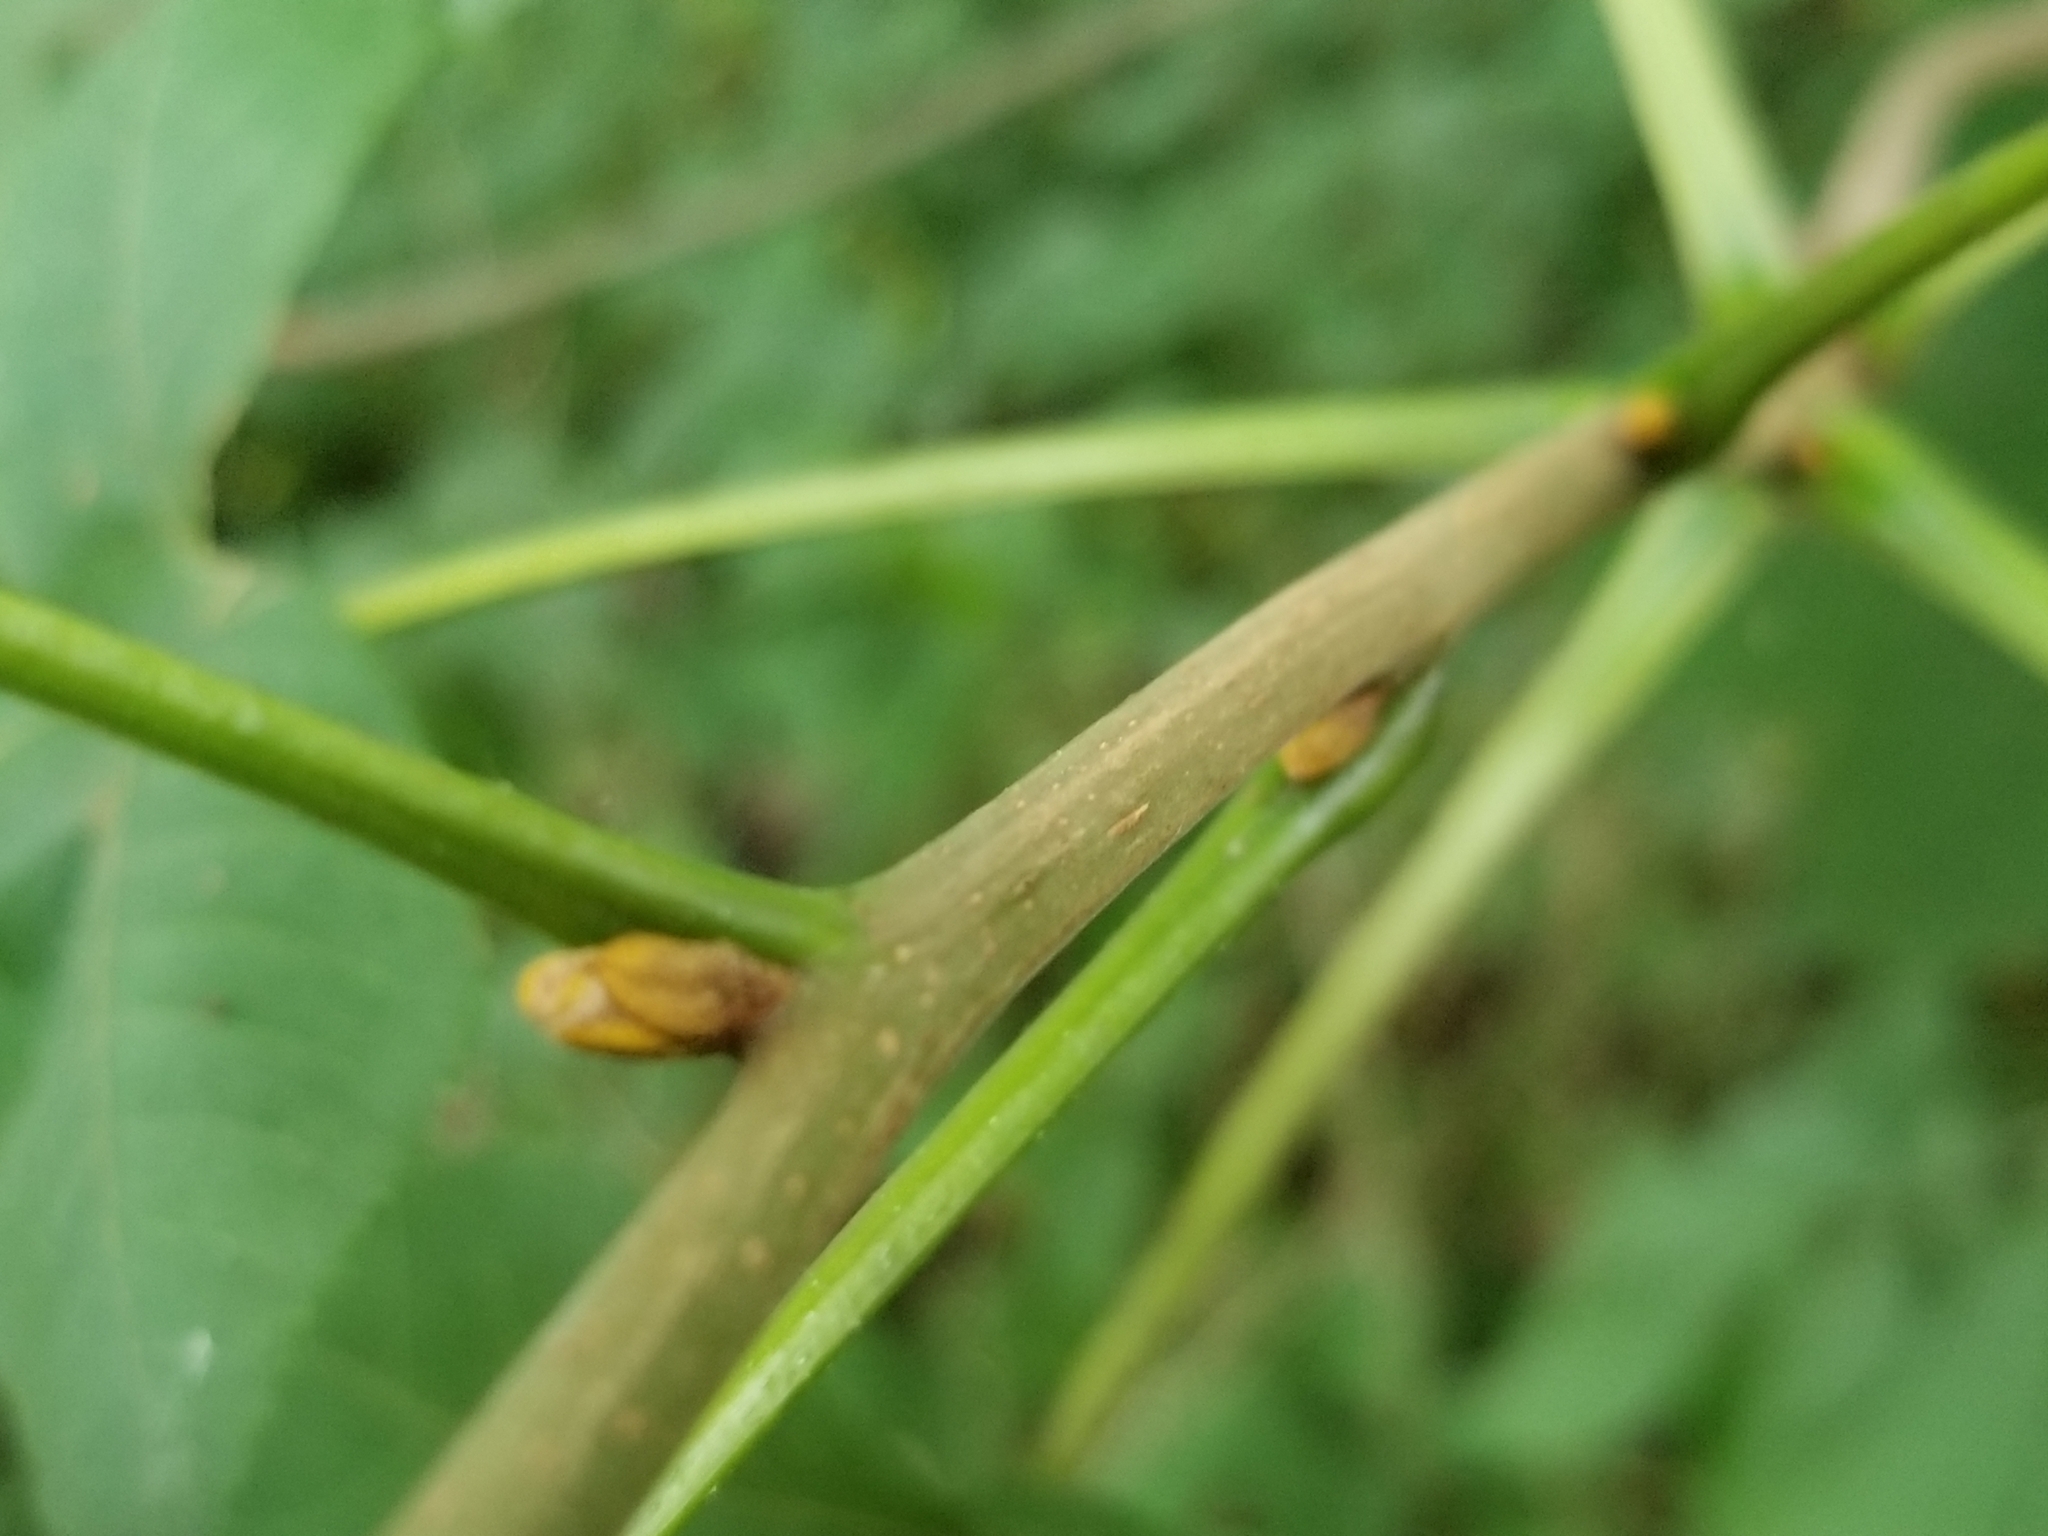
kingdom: Plantae
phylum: Tracheophyta
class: Magnoliopsida
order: Fagales
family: Juglandaceae
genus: Carya
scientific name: Carya cordiformis
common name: Bitternut hickory
